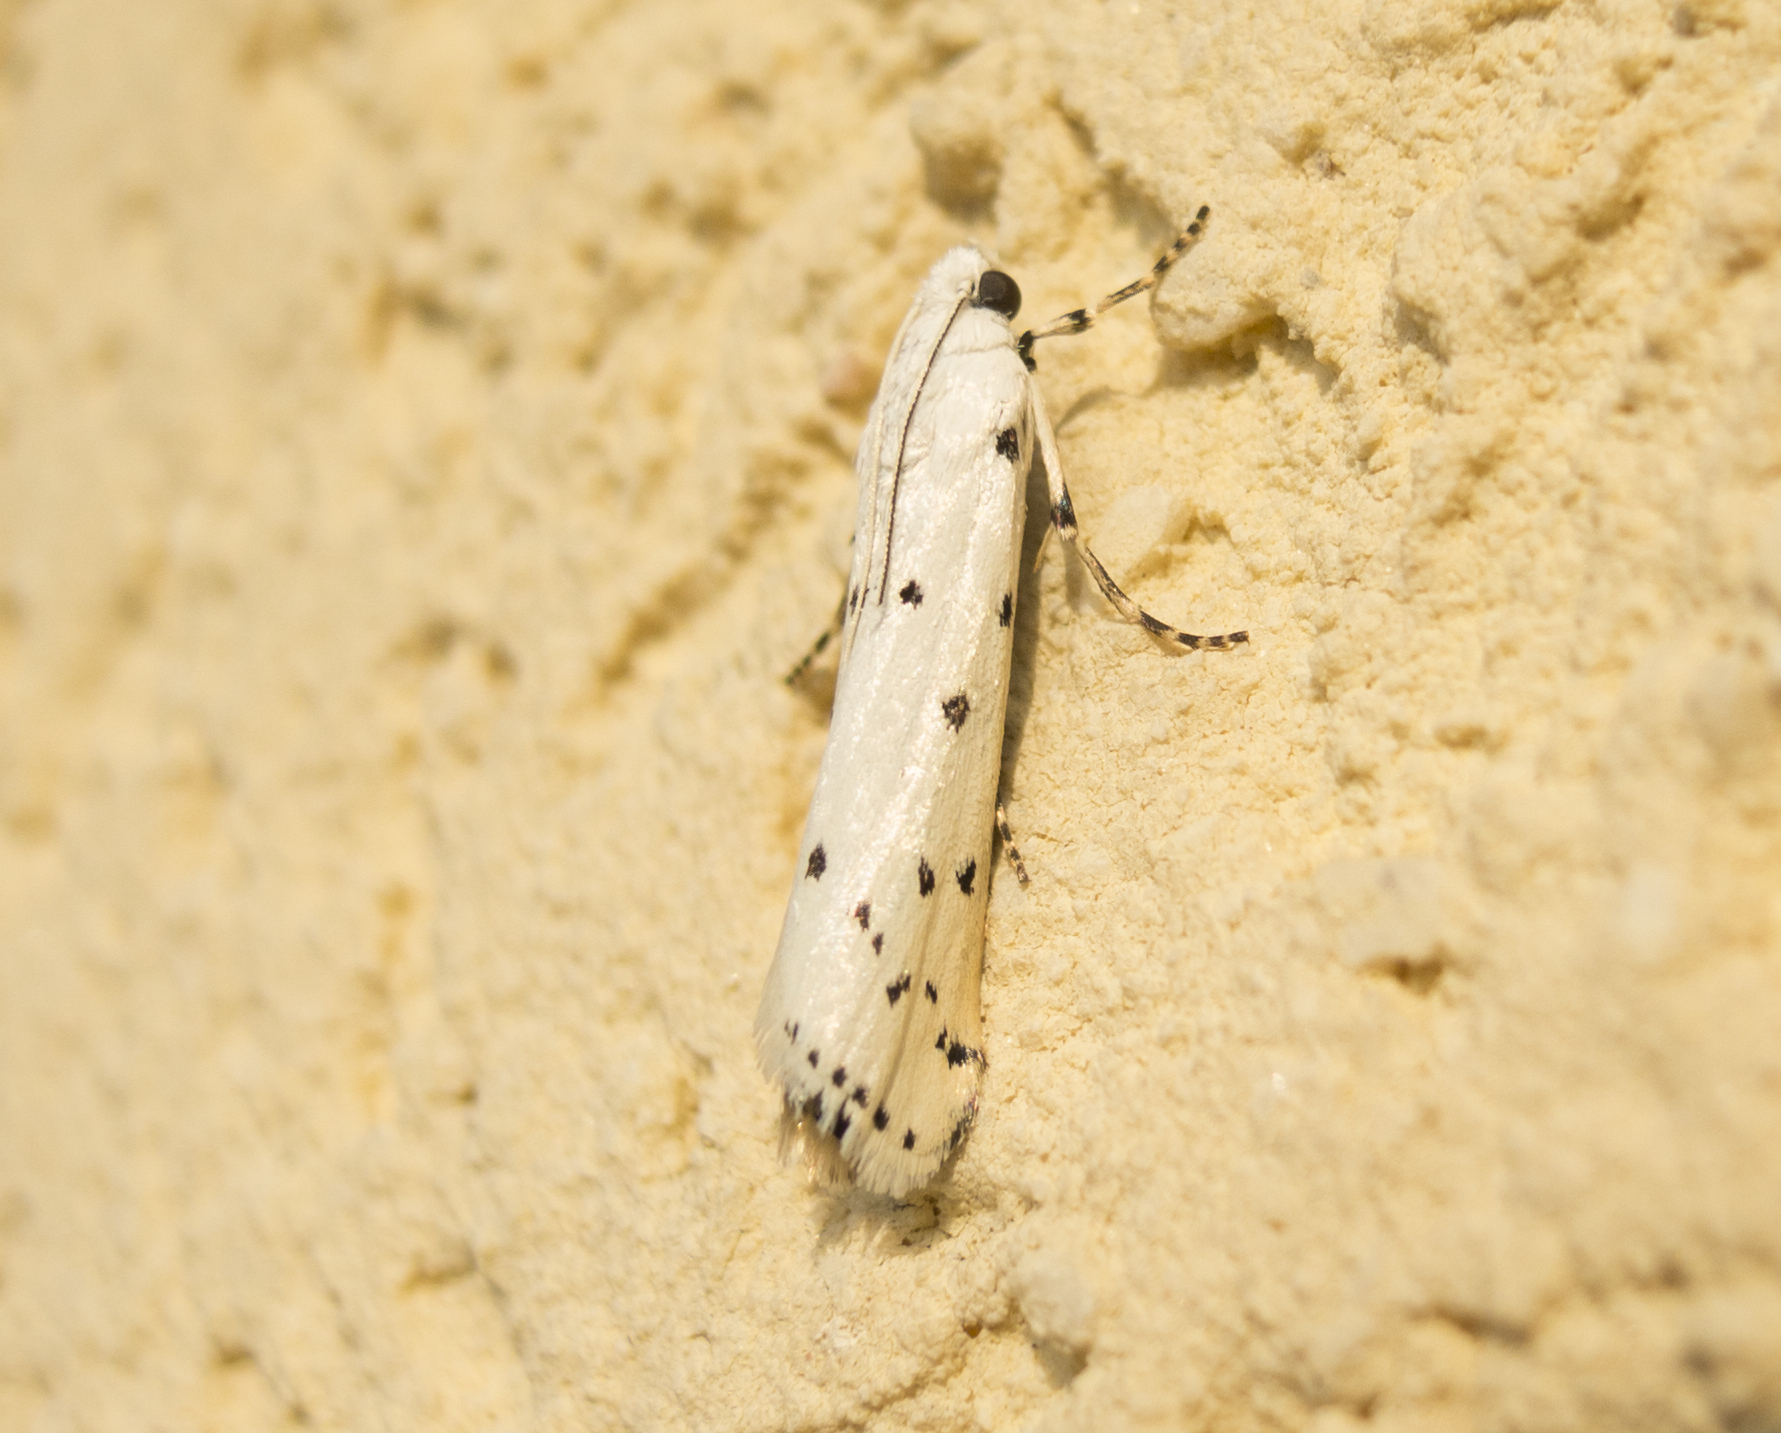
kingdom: Animalia
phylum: Arthropoda
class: Insecta
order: Lepidoptera
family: Pyralidae
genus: Myelois
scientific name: Myelois circumvoluta
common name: Thistle ermine
